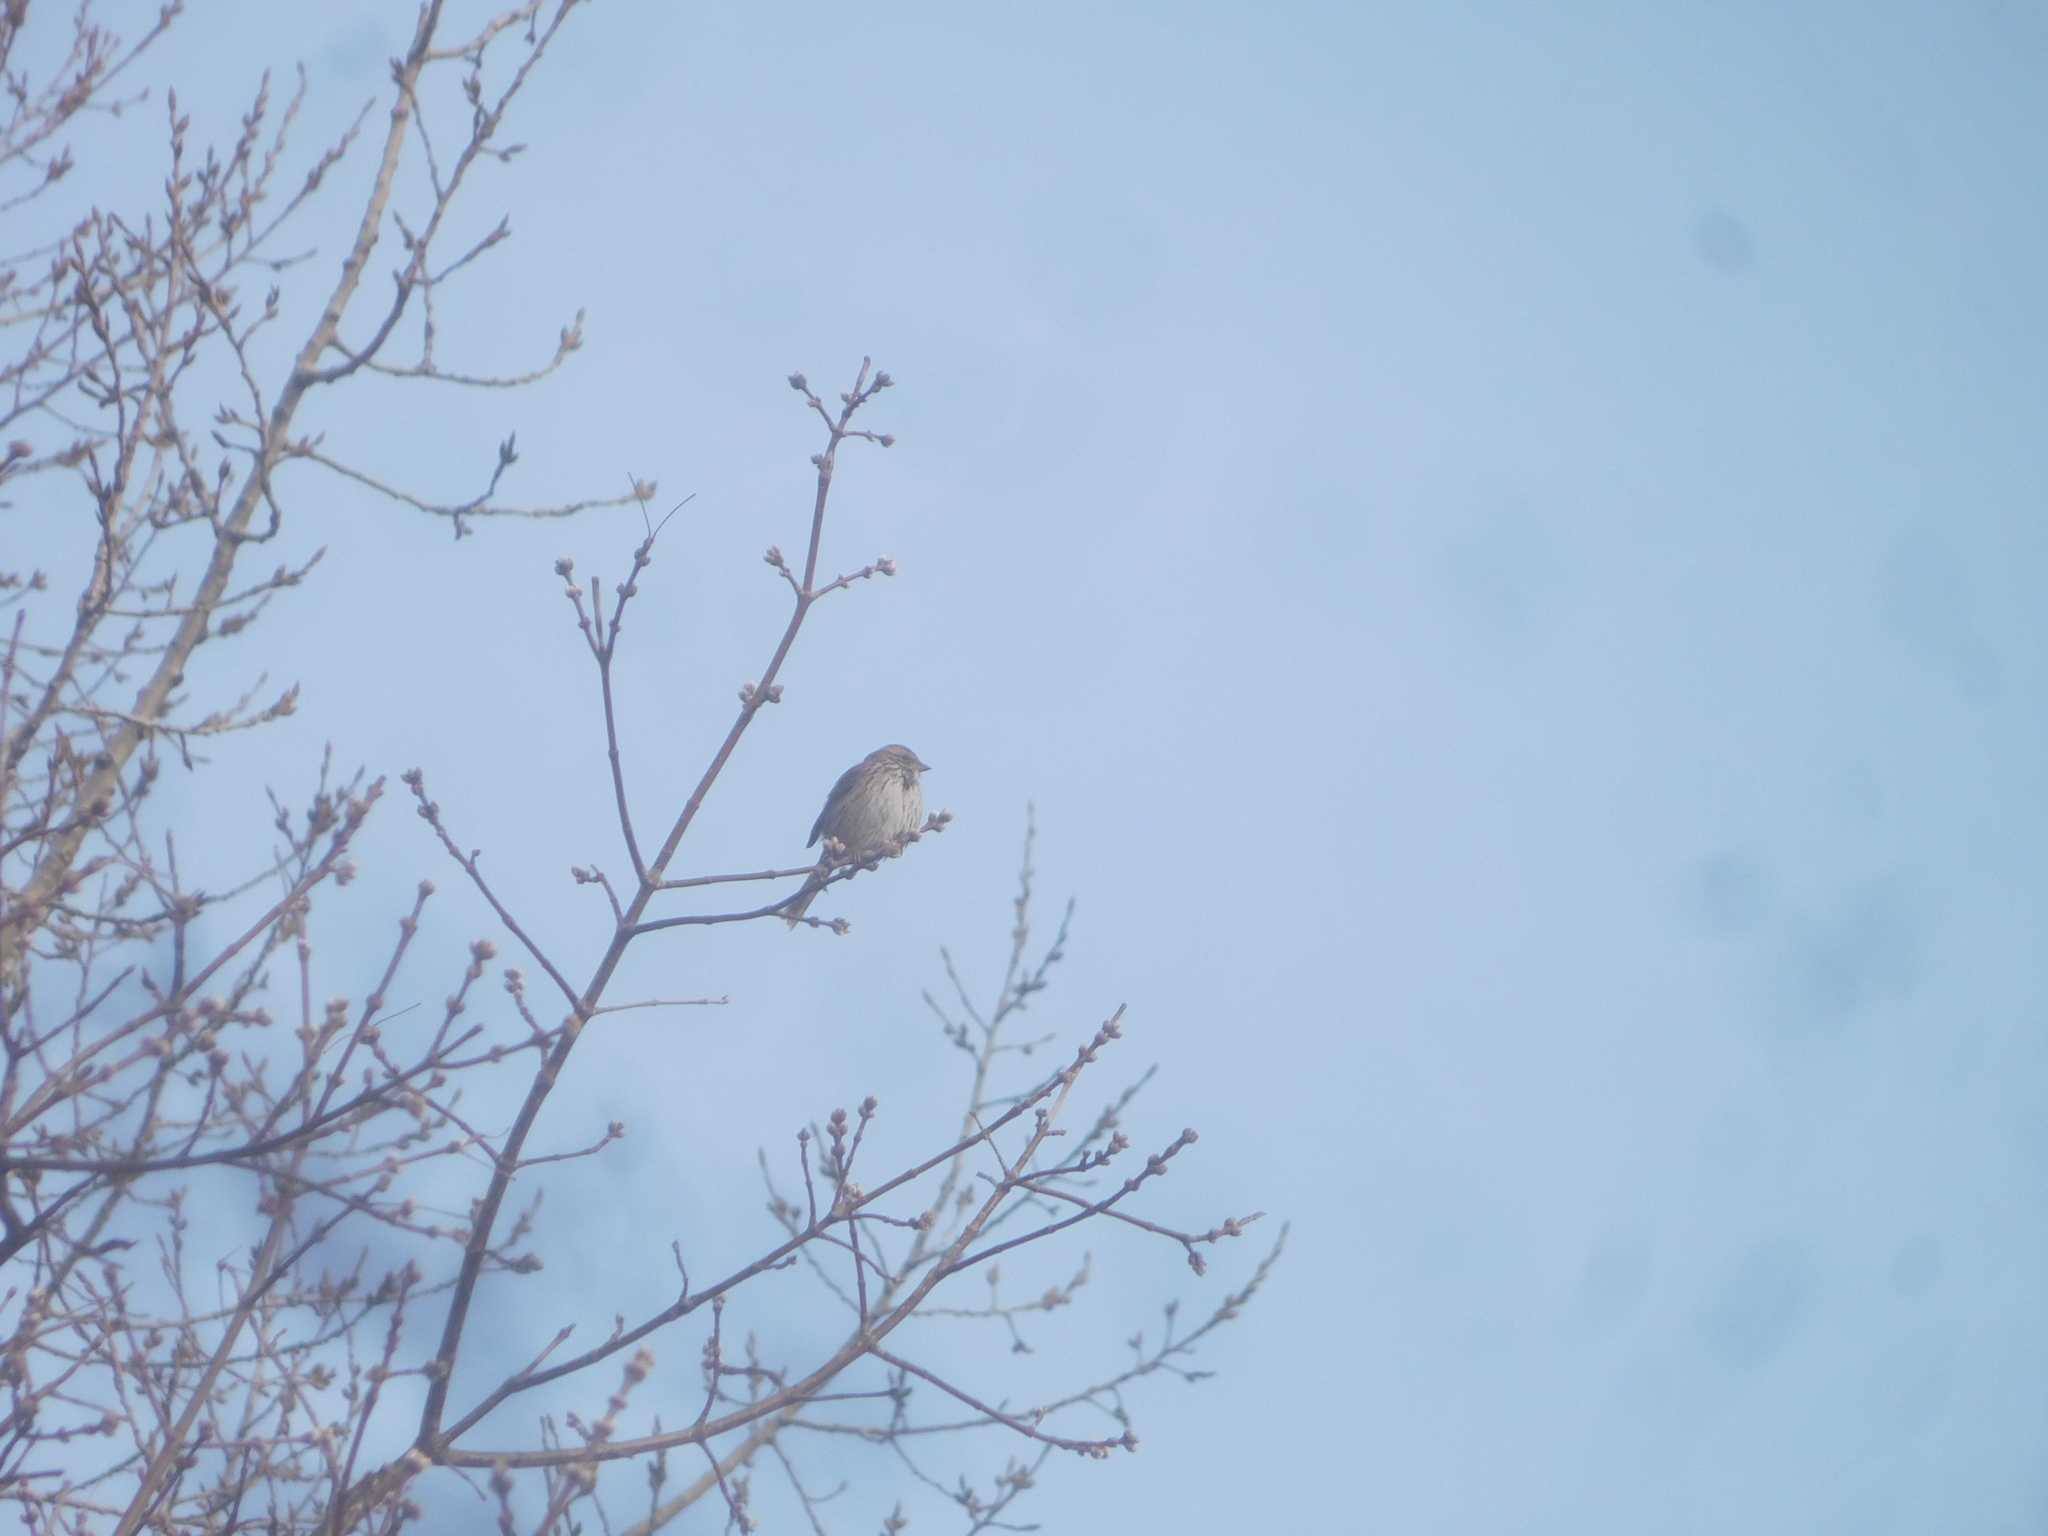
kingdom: Animalia
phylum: Chordata
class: Aves
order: Passeriformes
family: Passerellidae
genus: Melospiza
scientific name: Melospiza melodia
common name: Song sparrow
